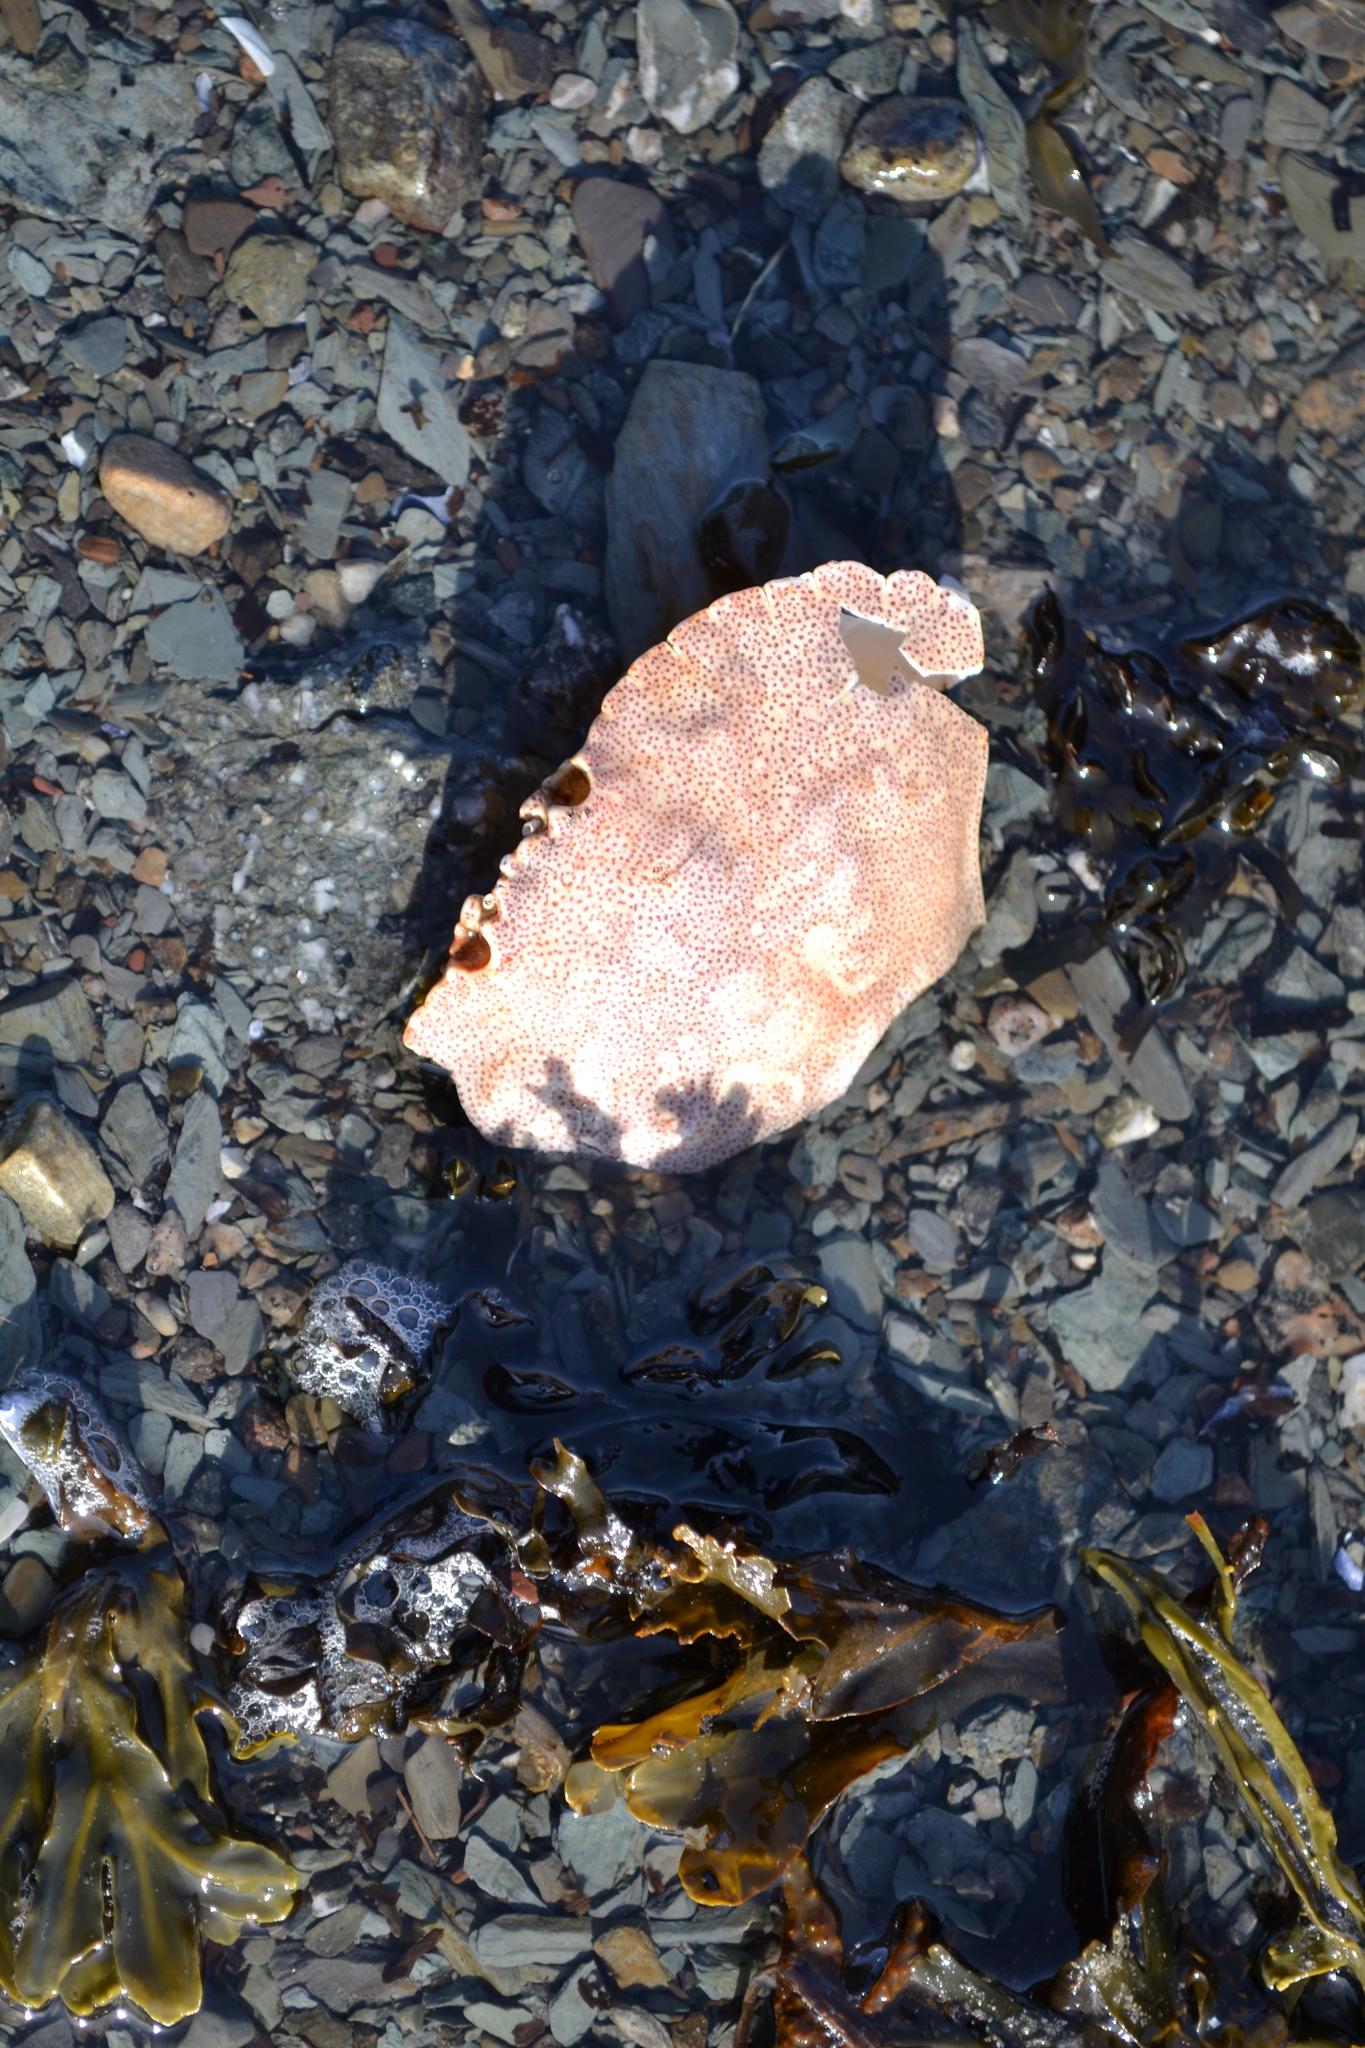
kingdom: Animalia
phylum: Arthropoda
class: Malacostraca
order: Decapoda
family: Cancridae
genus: Cancer
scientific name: Cancer irroratus
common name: Atlantic rock crab
